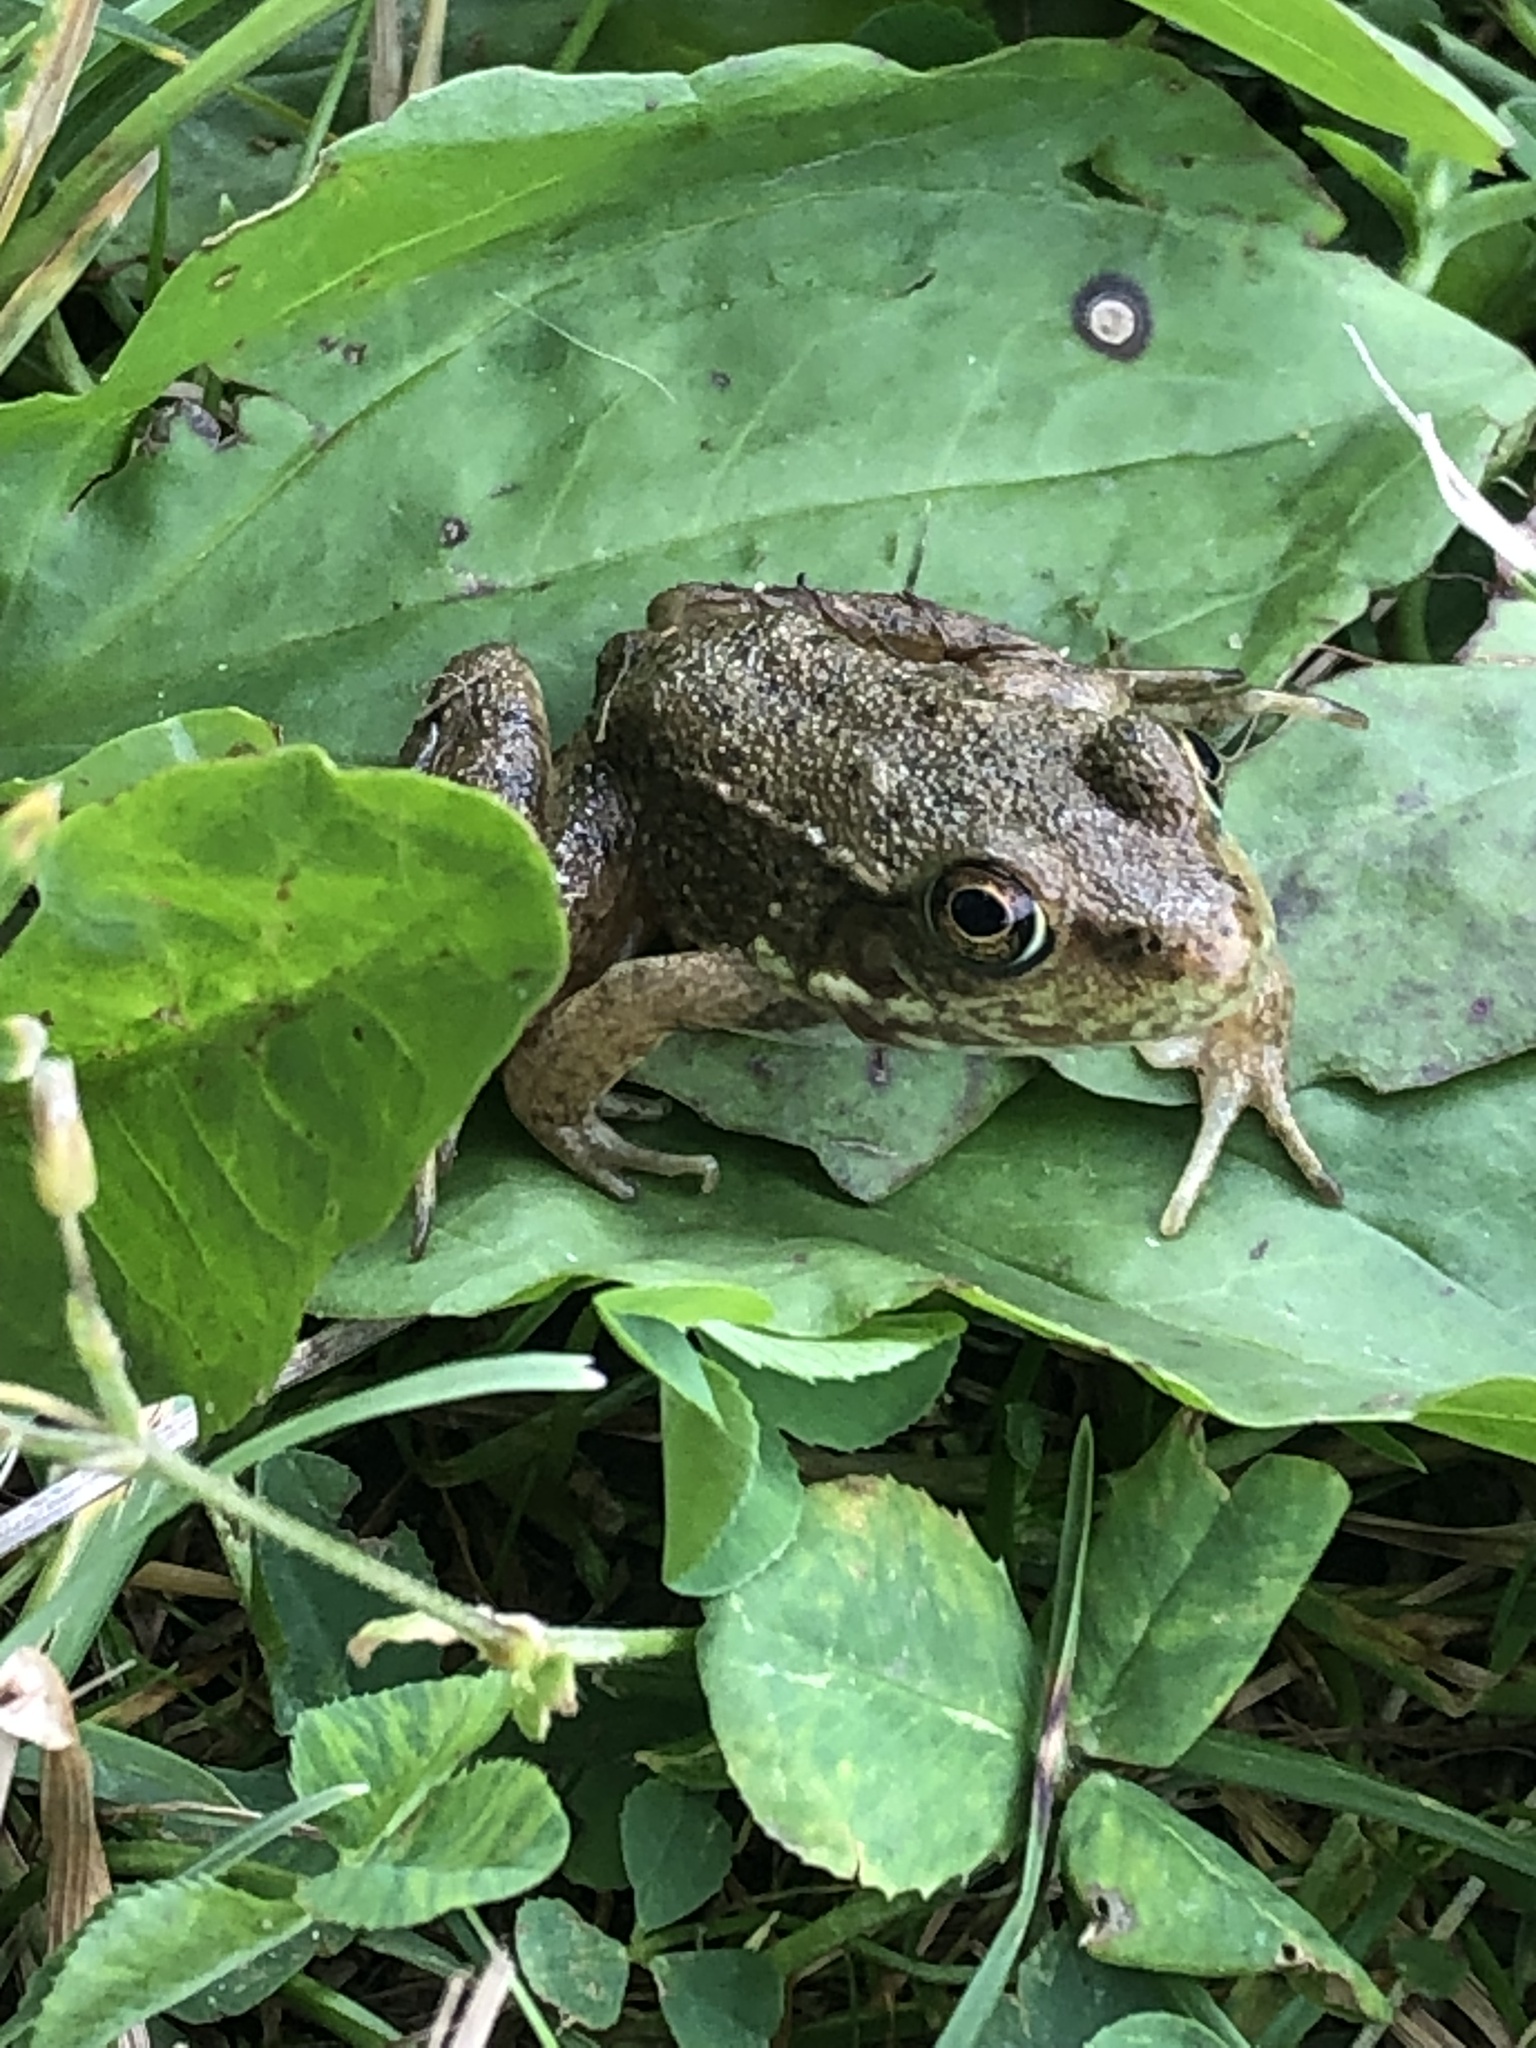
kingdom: Animalia
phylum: Chordata
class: Amphibia
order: Anura
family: Ranidae
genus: Lithobates
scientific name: Lithobates clamitans
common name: Green frog
